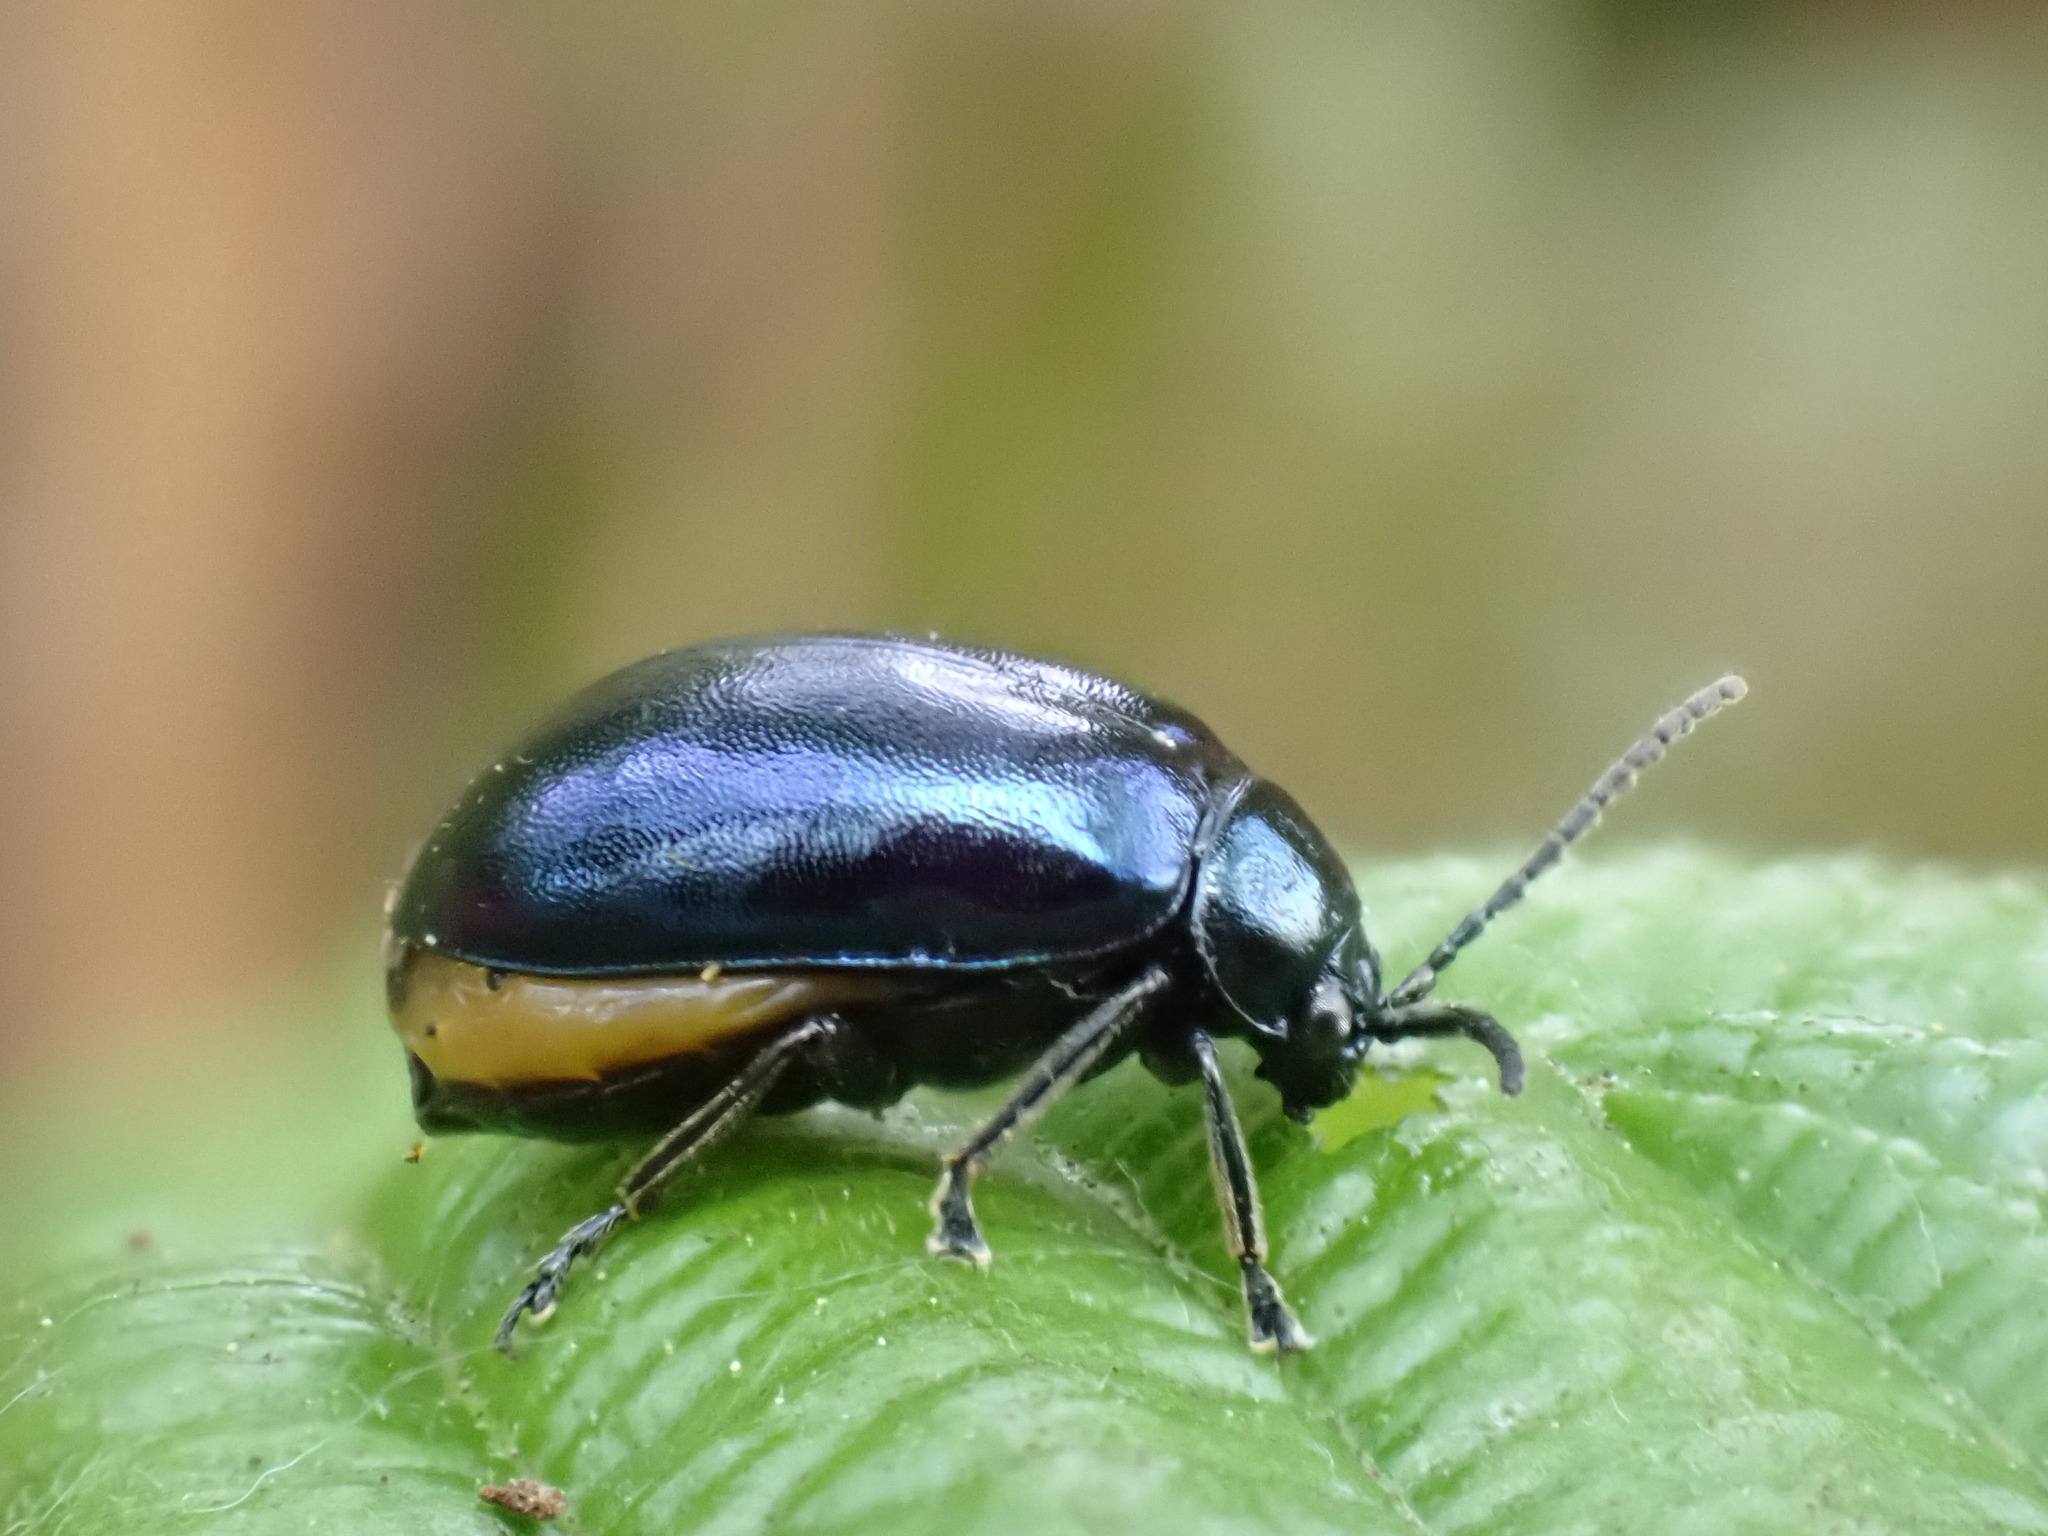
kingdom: Animalia
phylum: Arthropoda
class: Insecta
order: Coleoptera
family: Chrysomelidae
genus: Agelastica
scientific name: Agelastica alni
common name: Alder leaf beetle
